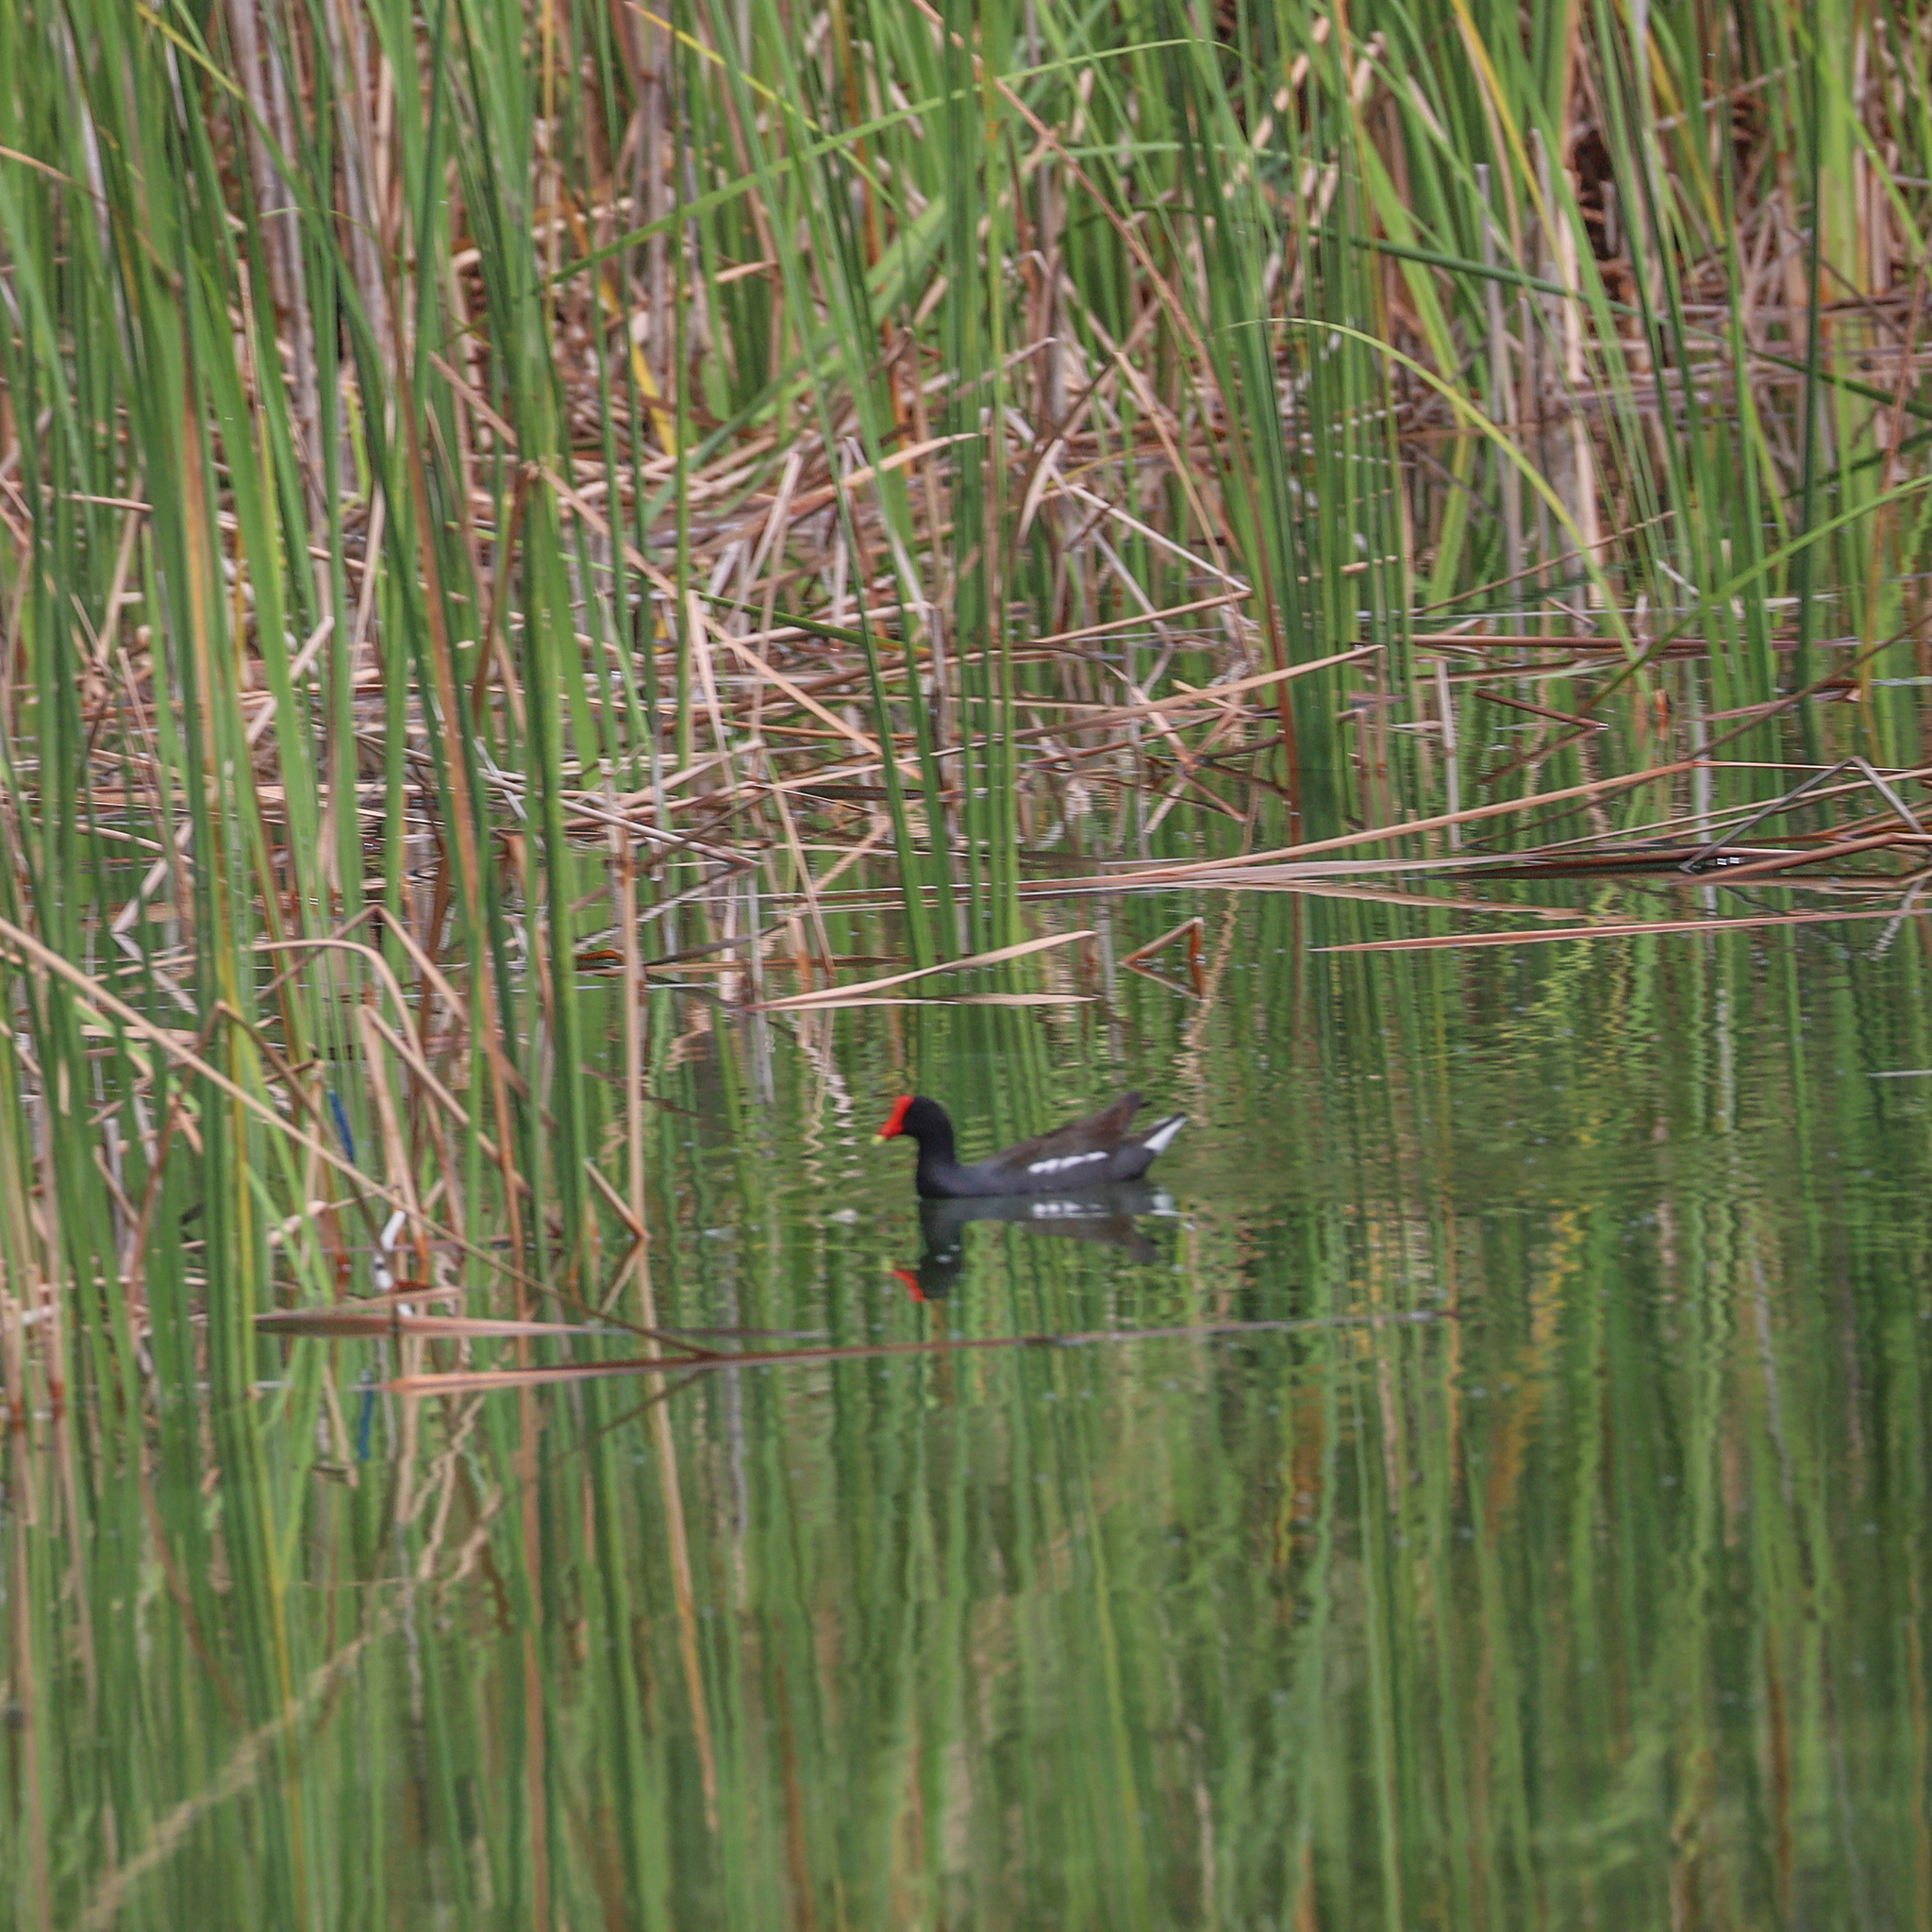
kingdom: Animalia
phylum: Chordata
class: Aves
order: Gruiformes
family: Rallidae
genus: Gallinula
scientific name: Gallinula chloropus
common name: Common moorhen
